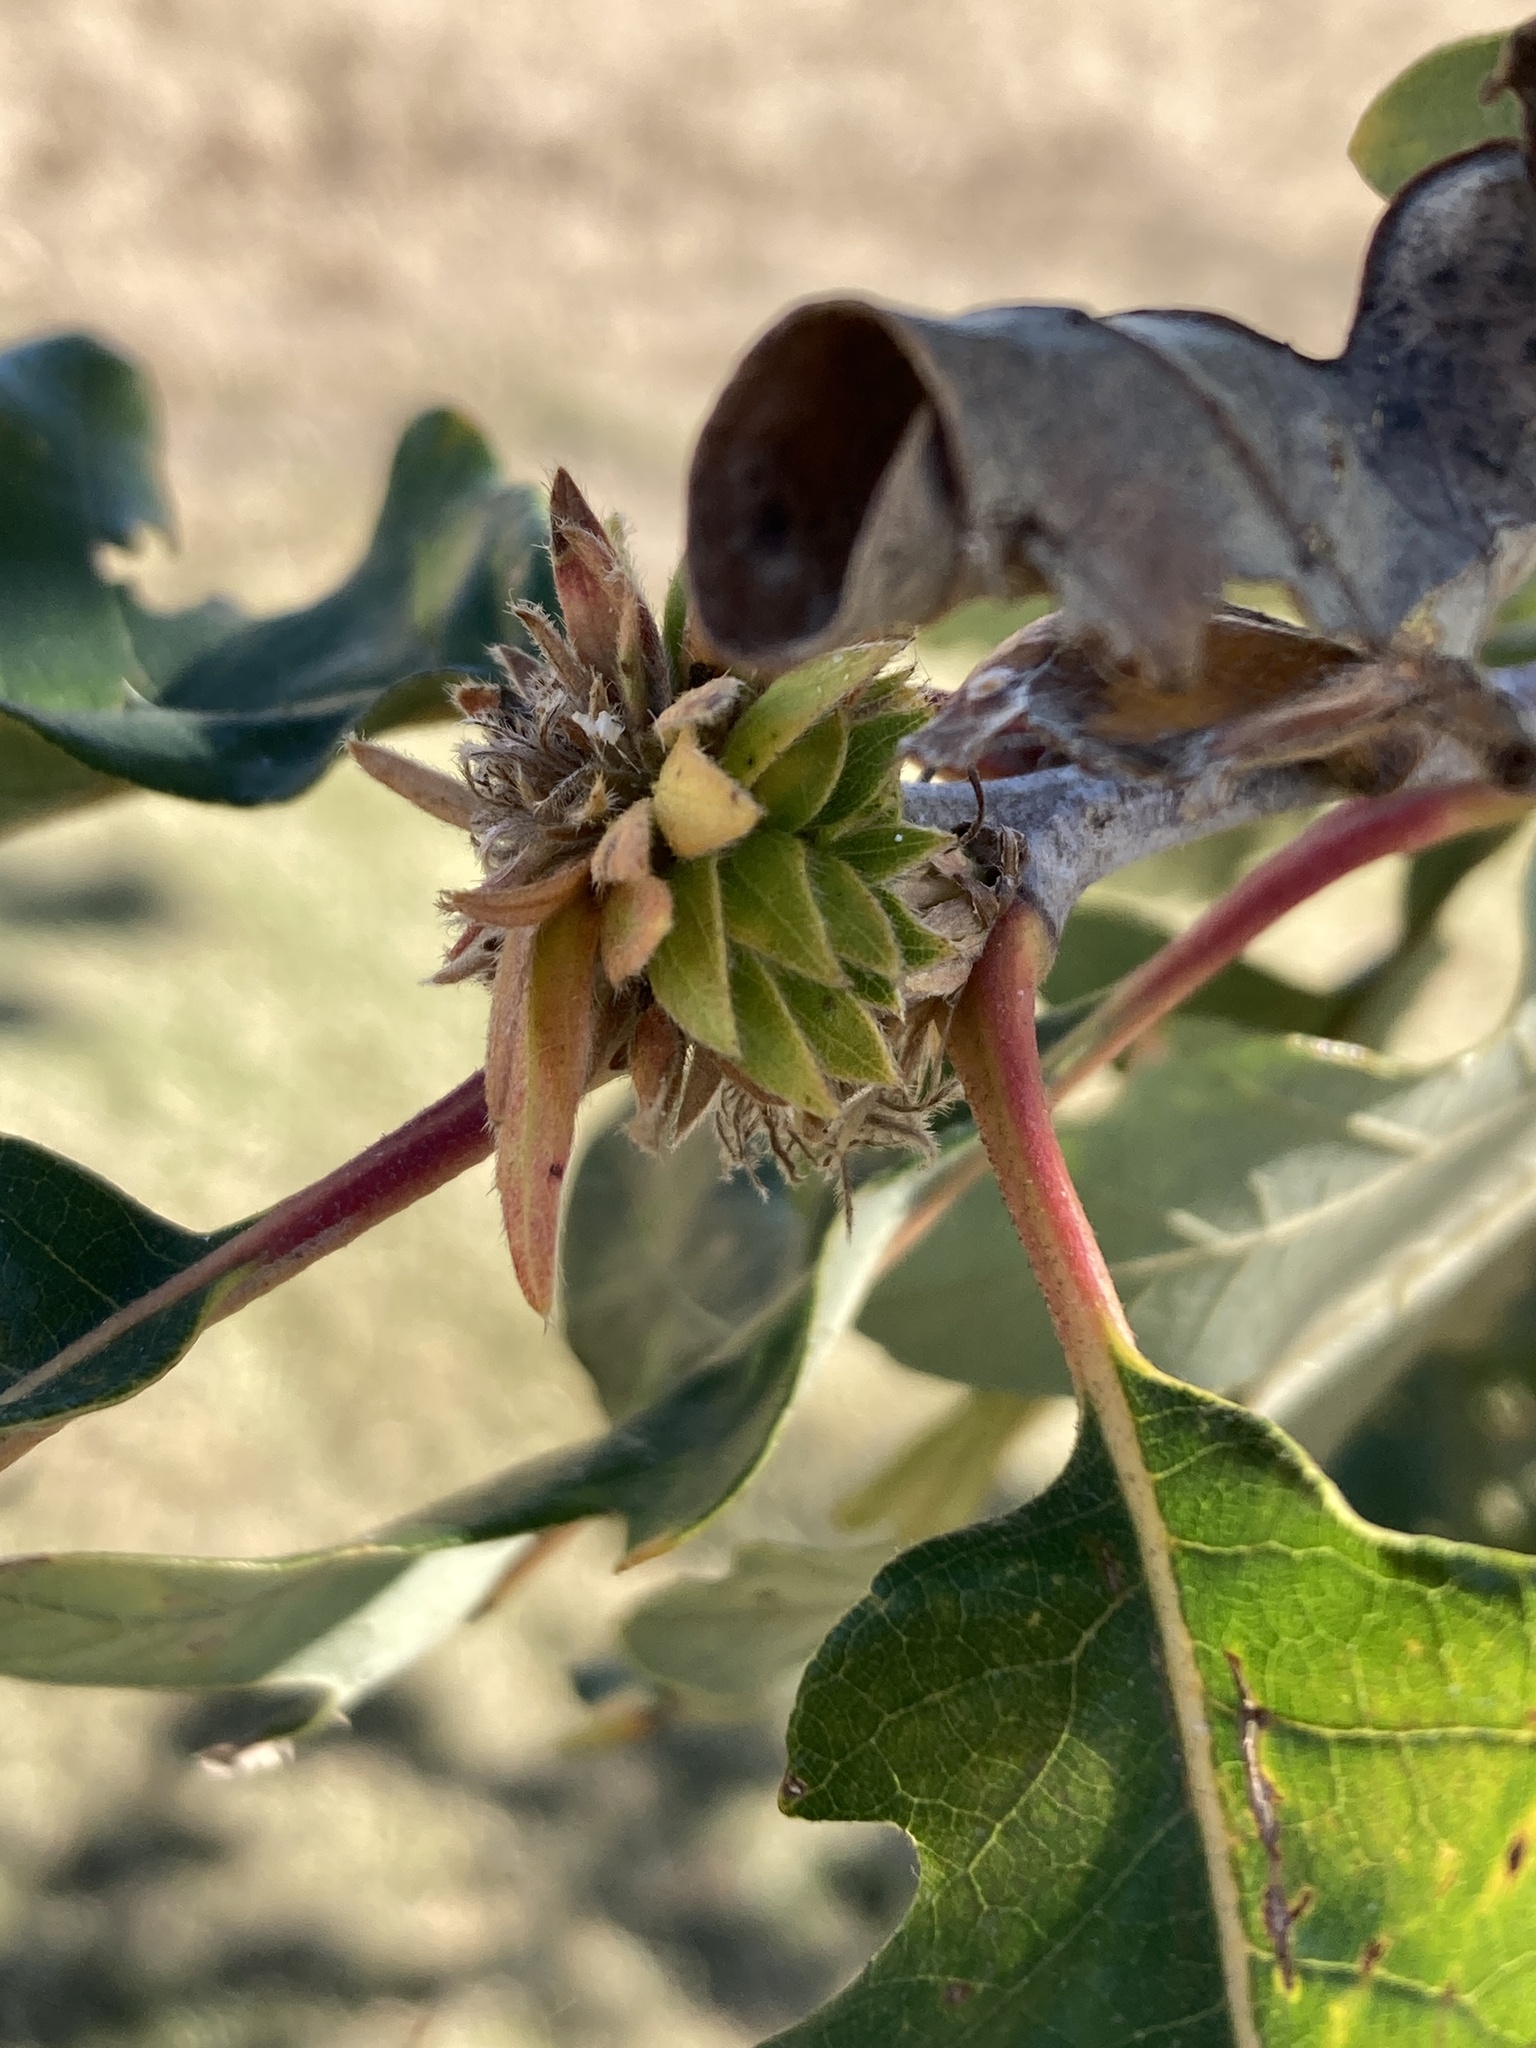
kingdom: Animalia
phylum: Arthropoda
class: Insecta
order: Hymenoptera
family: Cynipidae
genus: Andricus
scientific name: Andricus
